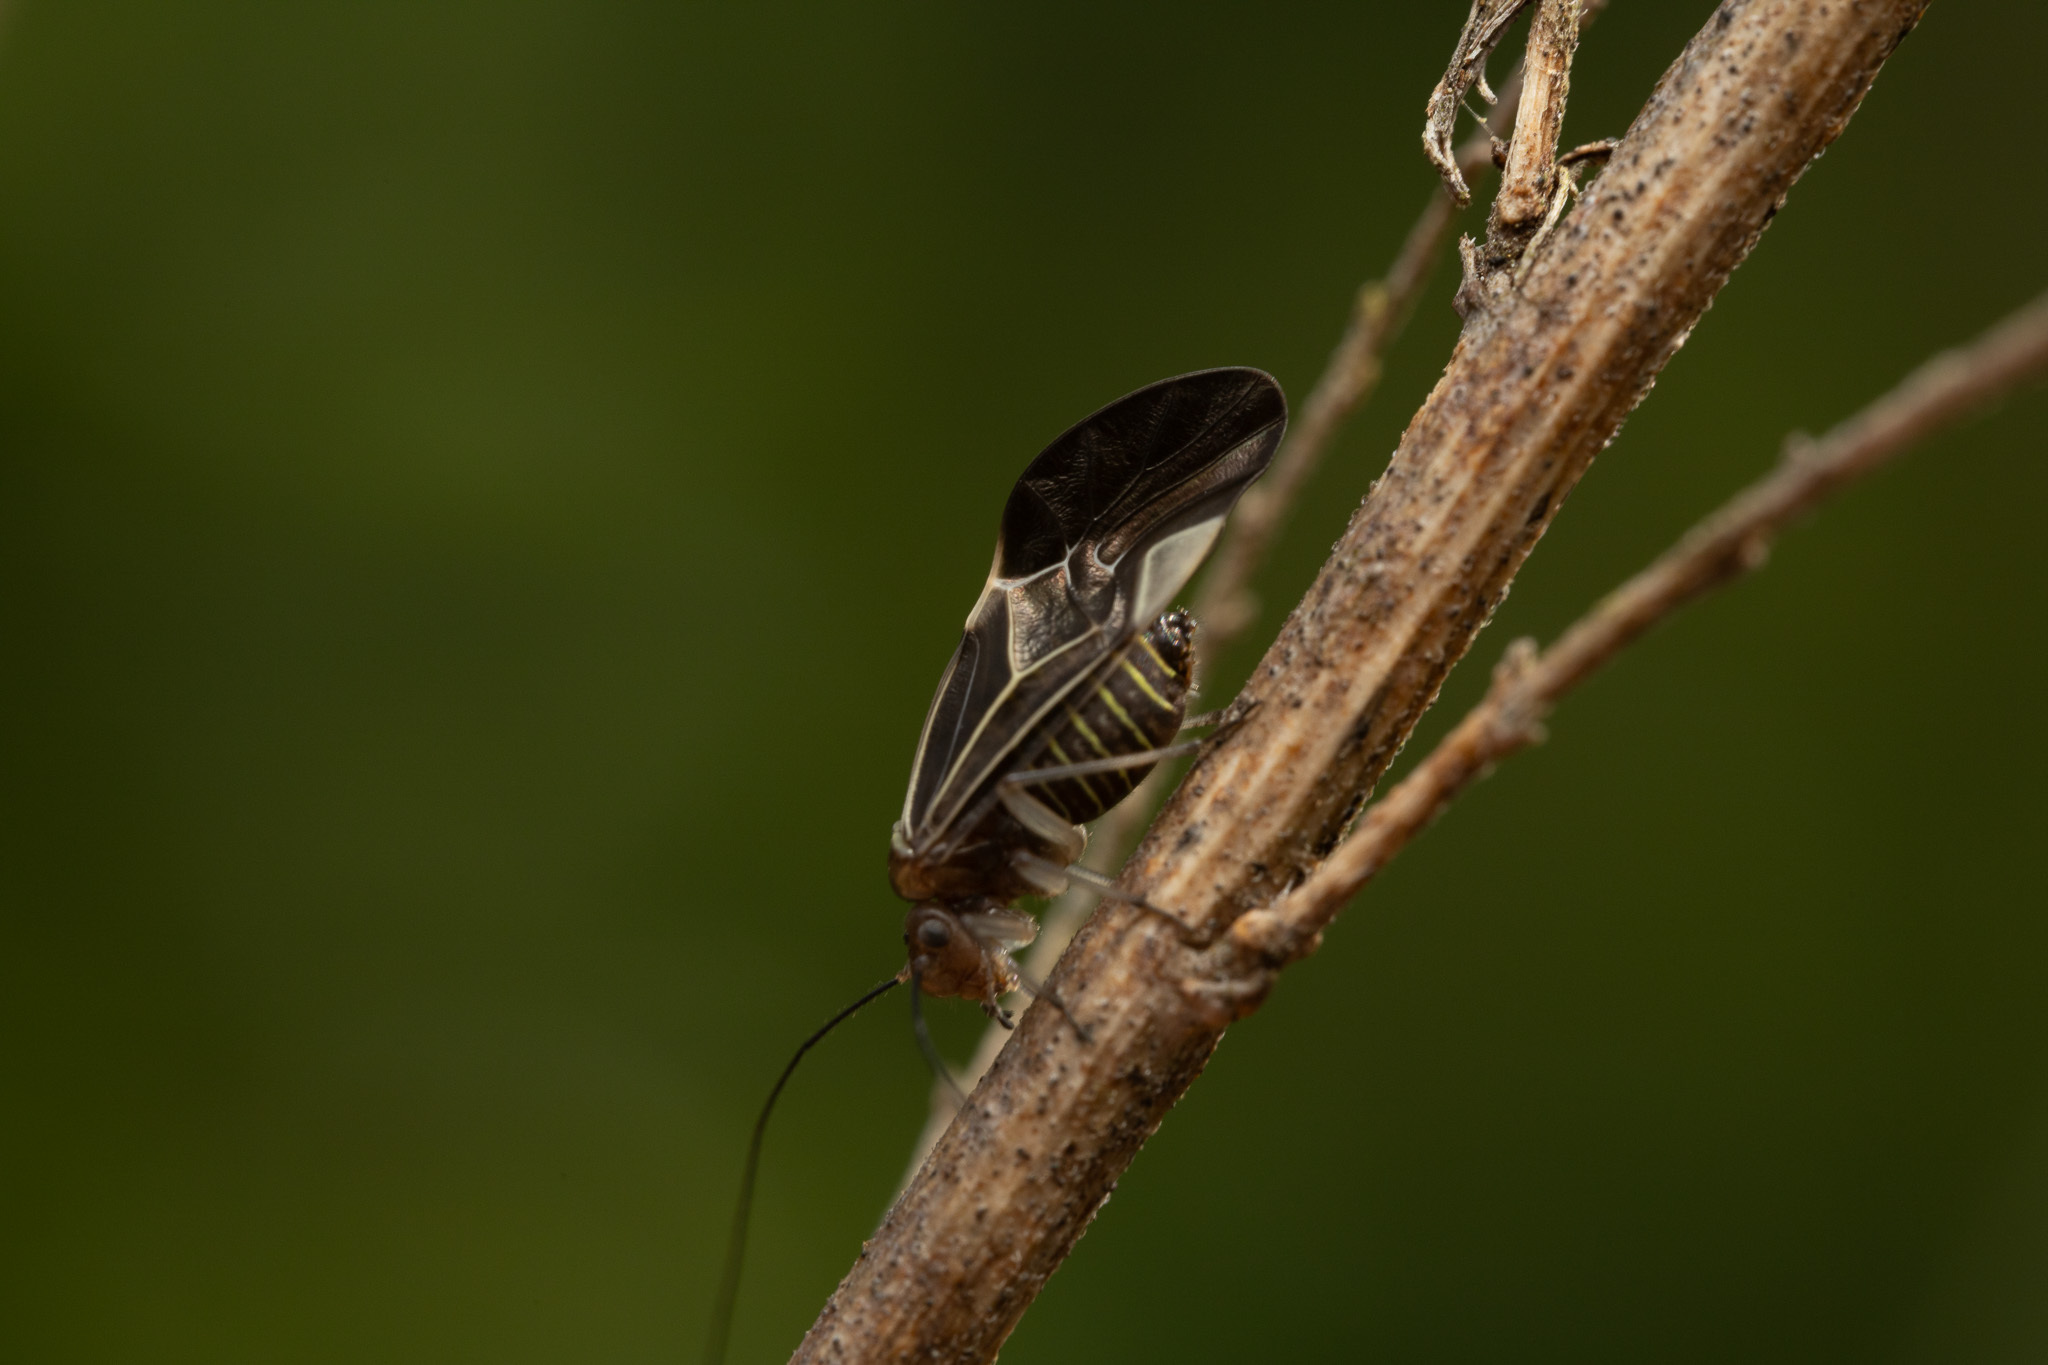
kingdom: Animalia
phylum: Arthropoda
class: Insecta
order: Psocodea
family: Psocidae
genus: Cerastipsocus
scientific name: Cerastipsocus venosus
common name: Tree cattle
